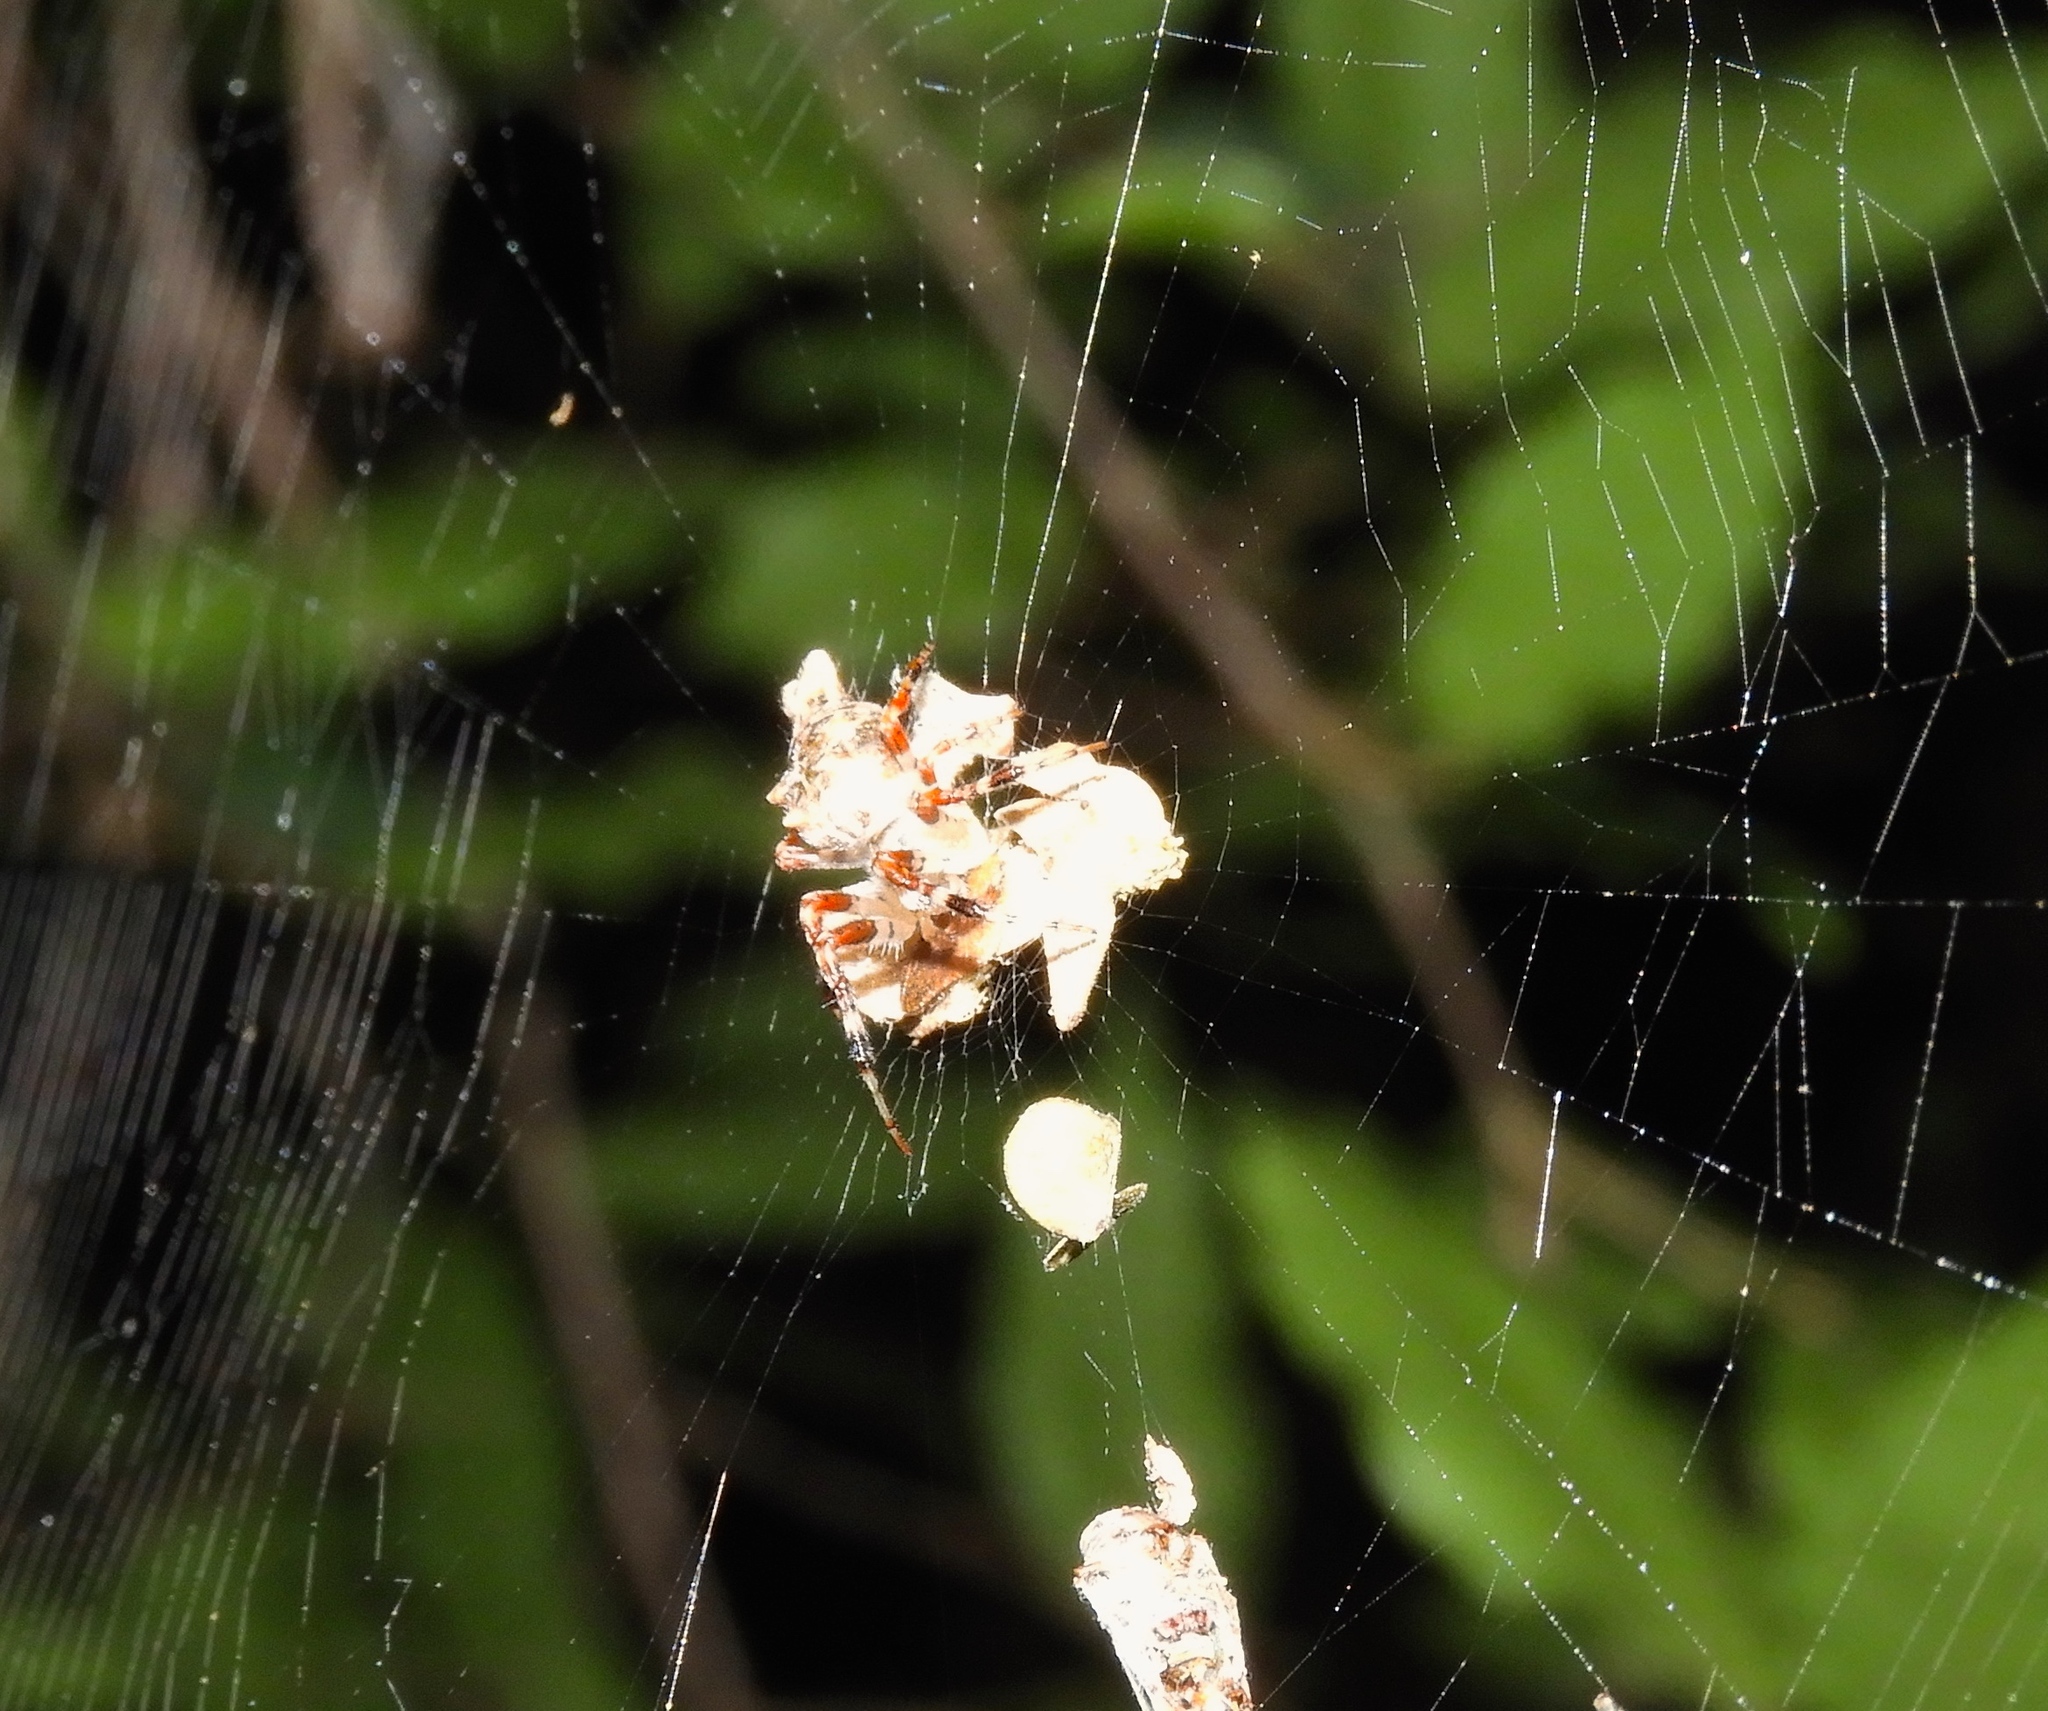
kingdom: Animalia
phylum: Arthropoda
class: Arachnida
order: Araneae
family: Araneidae
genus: Wagneriana
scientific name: Wagneriana
